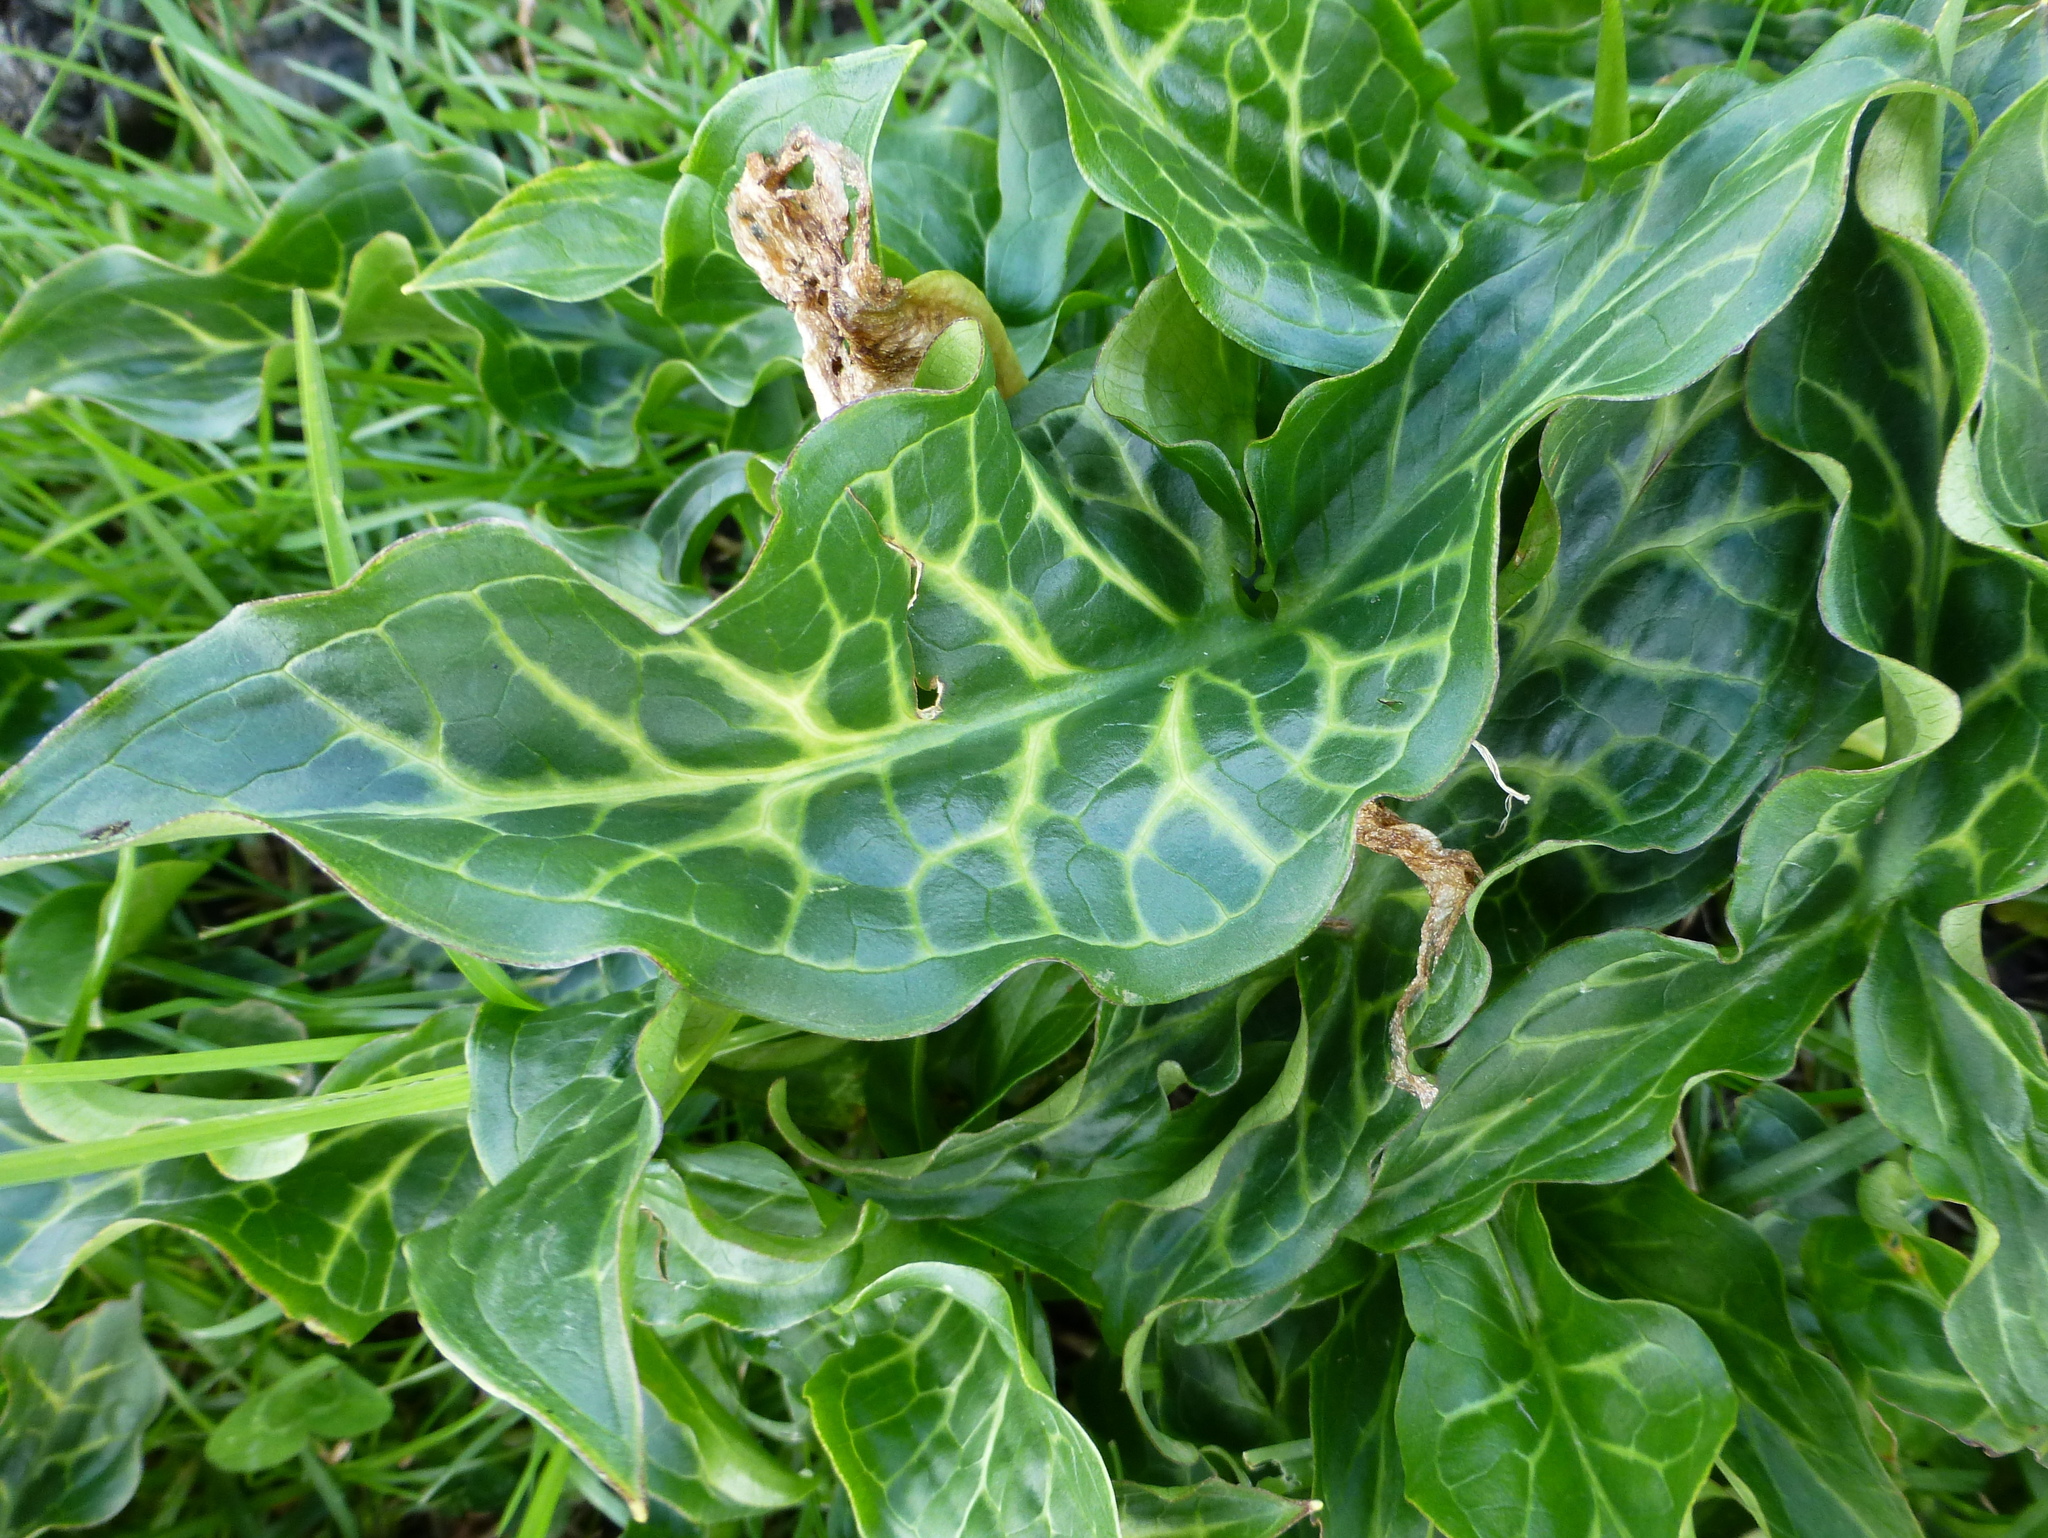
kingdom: Plantae
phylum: Tracheophyta
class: Liliopsida
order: Alismatales
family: Araceae
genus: Arum
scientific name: Arum italicum
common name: Italian lords-and-ladies
